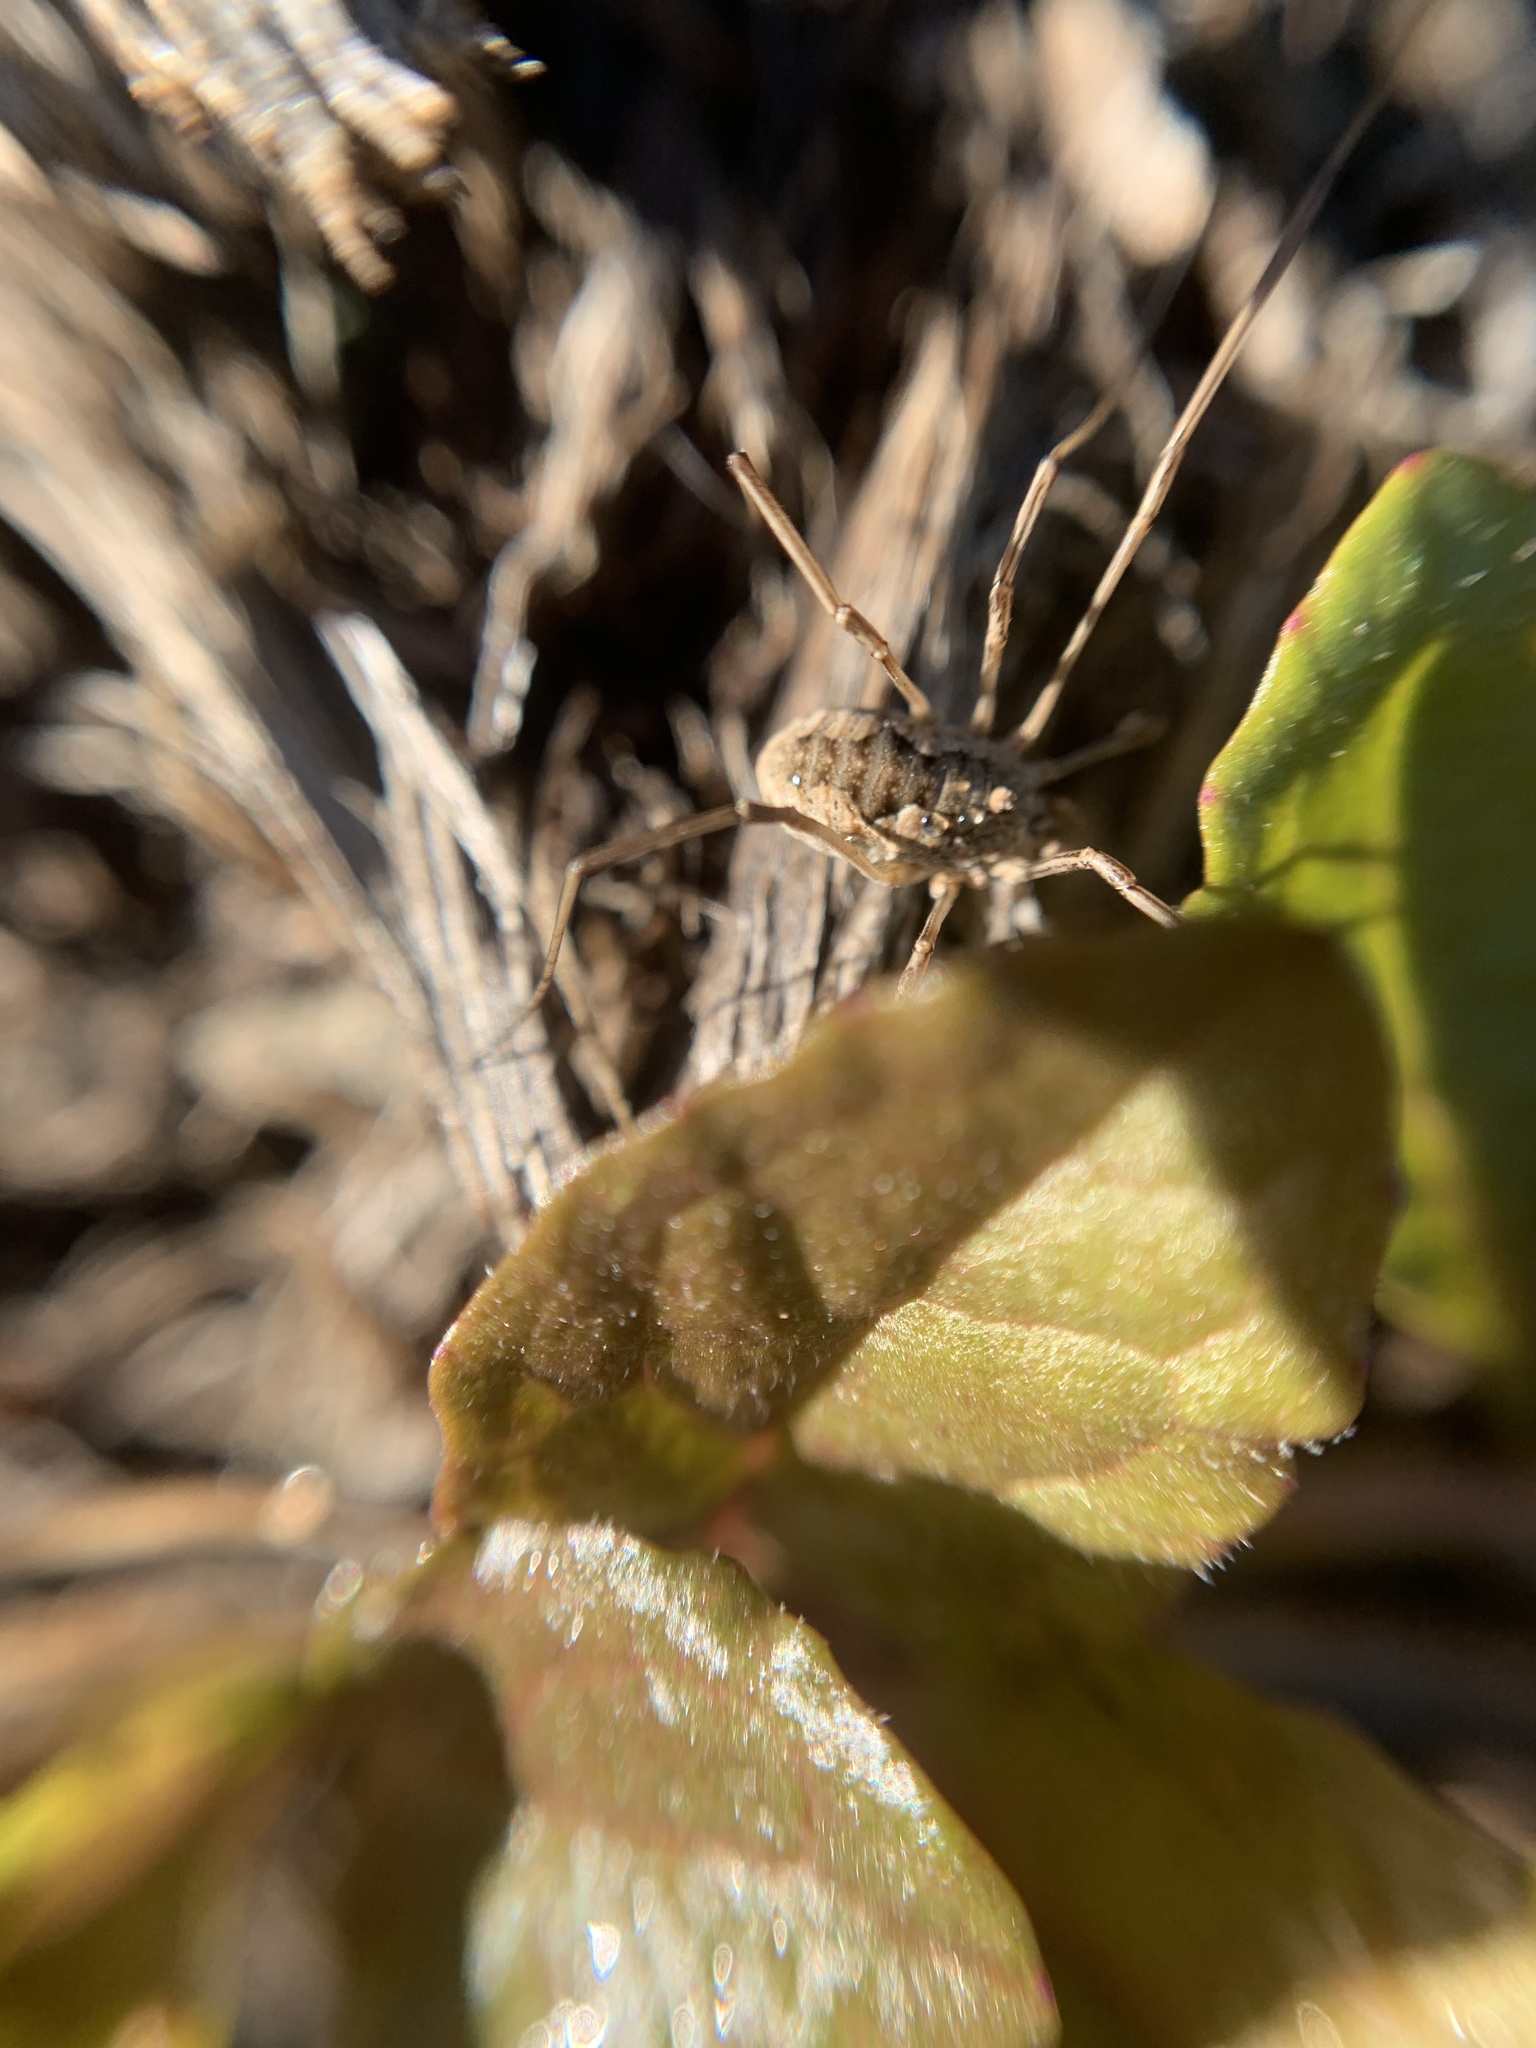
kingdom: Animalia
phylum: Arthropoda
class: Arachnida
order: Opiliones
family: Phalangiidae
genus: Phalangium
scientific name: Phalangium opilio
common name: Daddy longleg
